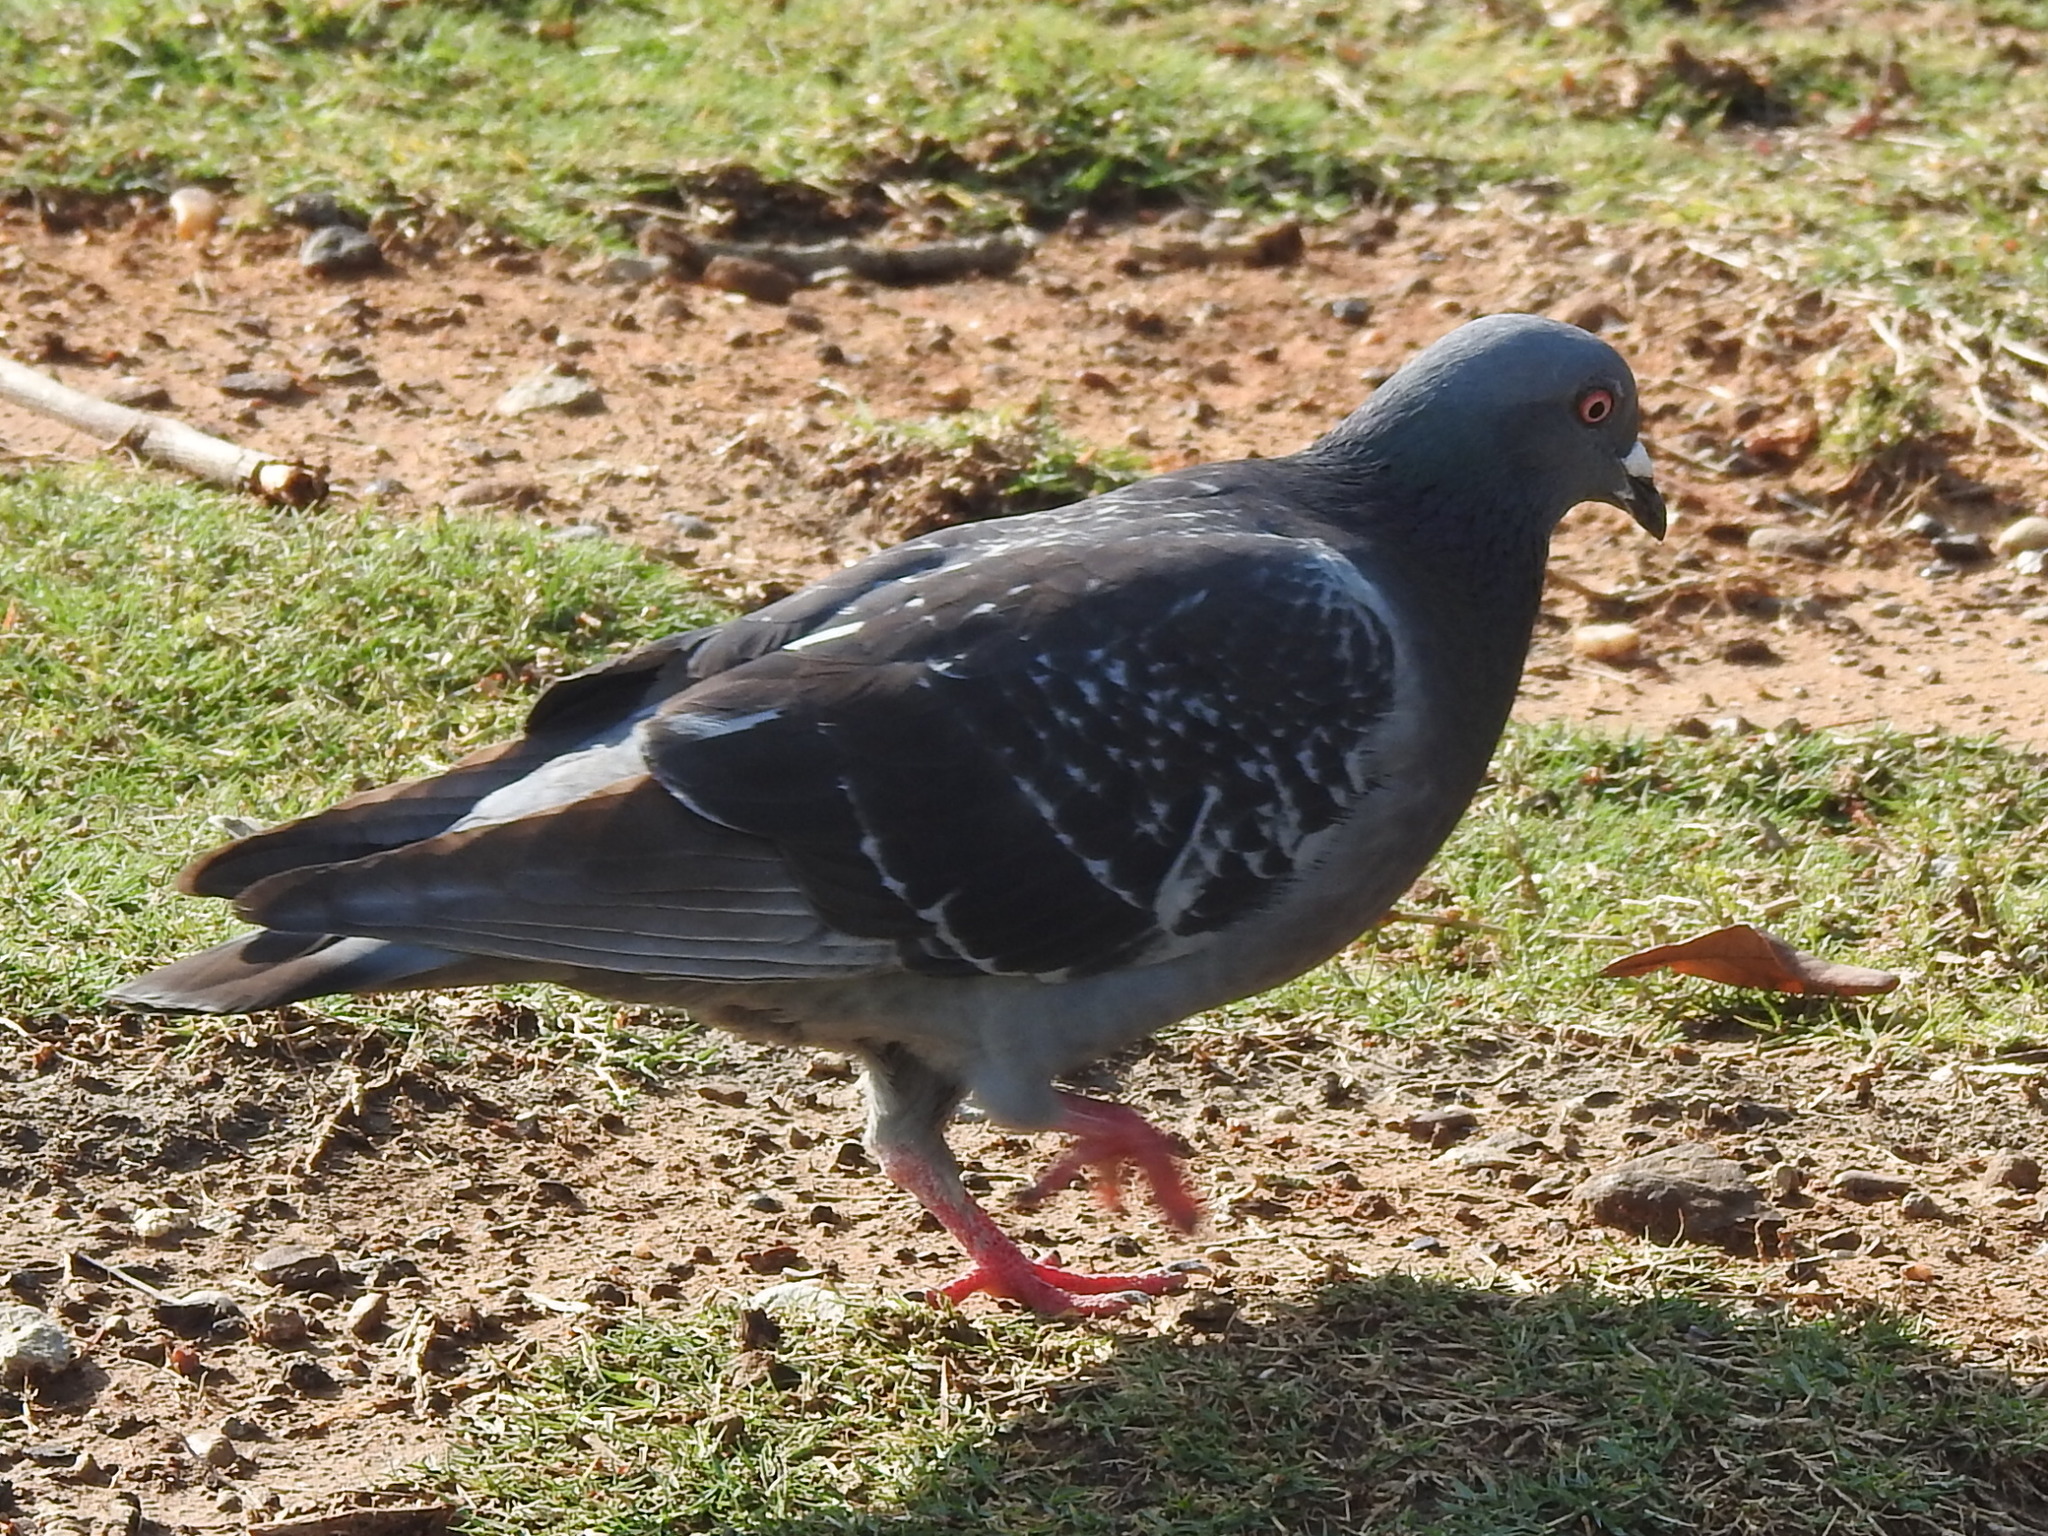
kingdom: Animalia
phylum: Chordata
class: Aves
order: Columbiformes
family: Columbidae
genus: Columba
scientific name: Columba livia
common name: Rock pigeon
